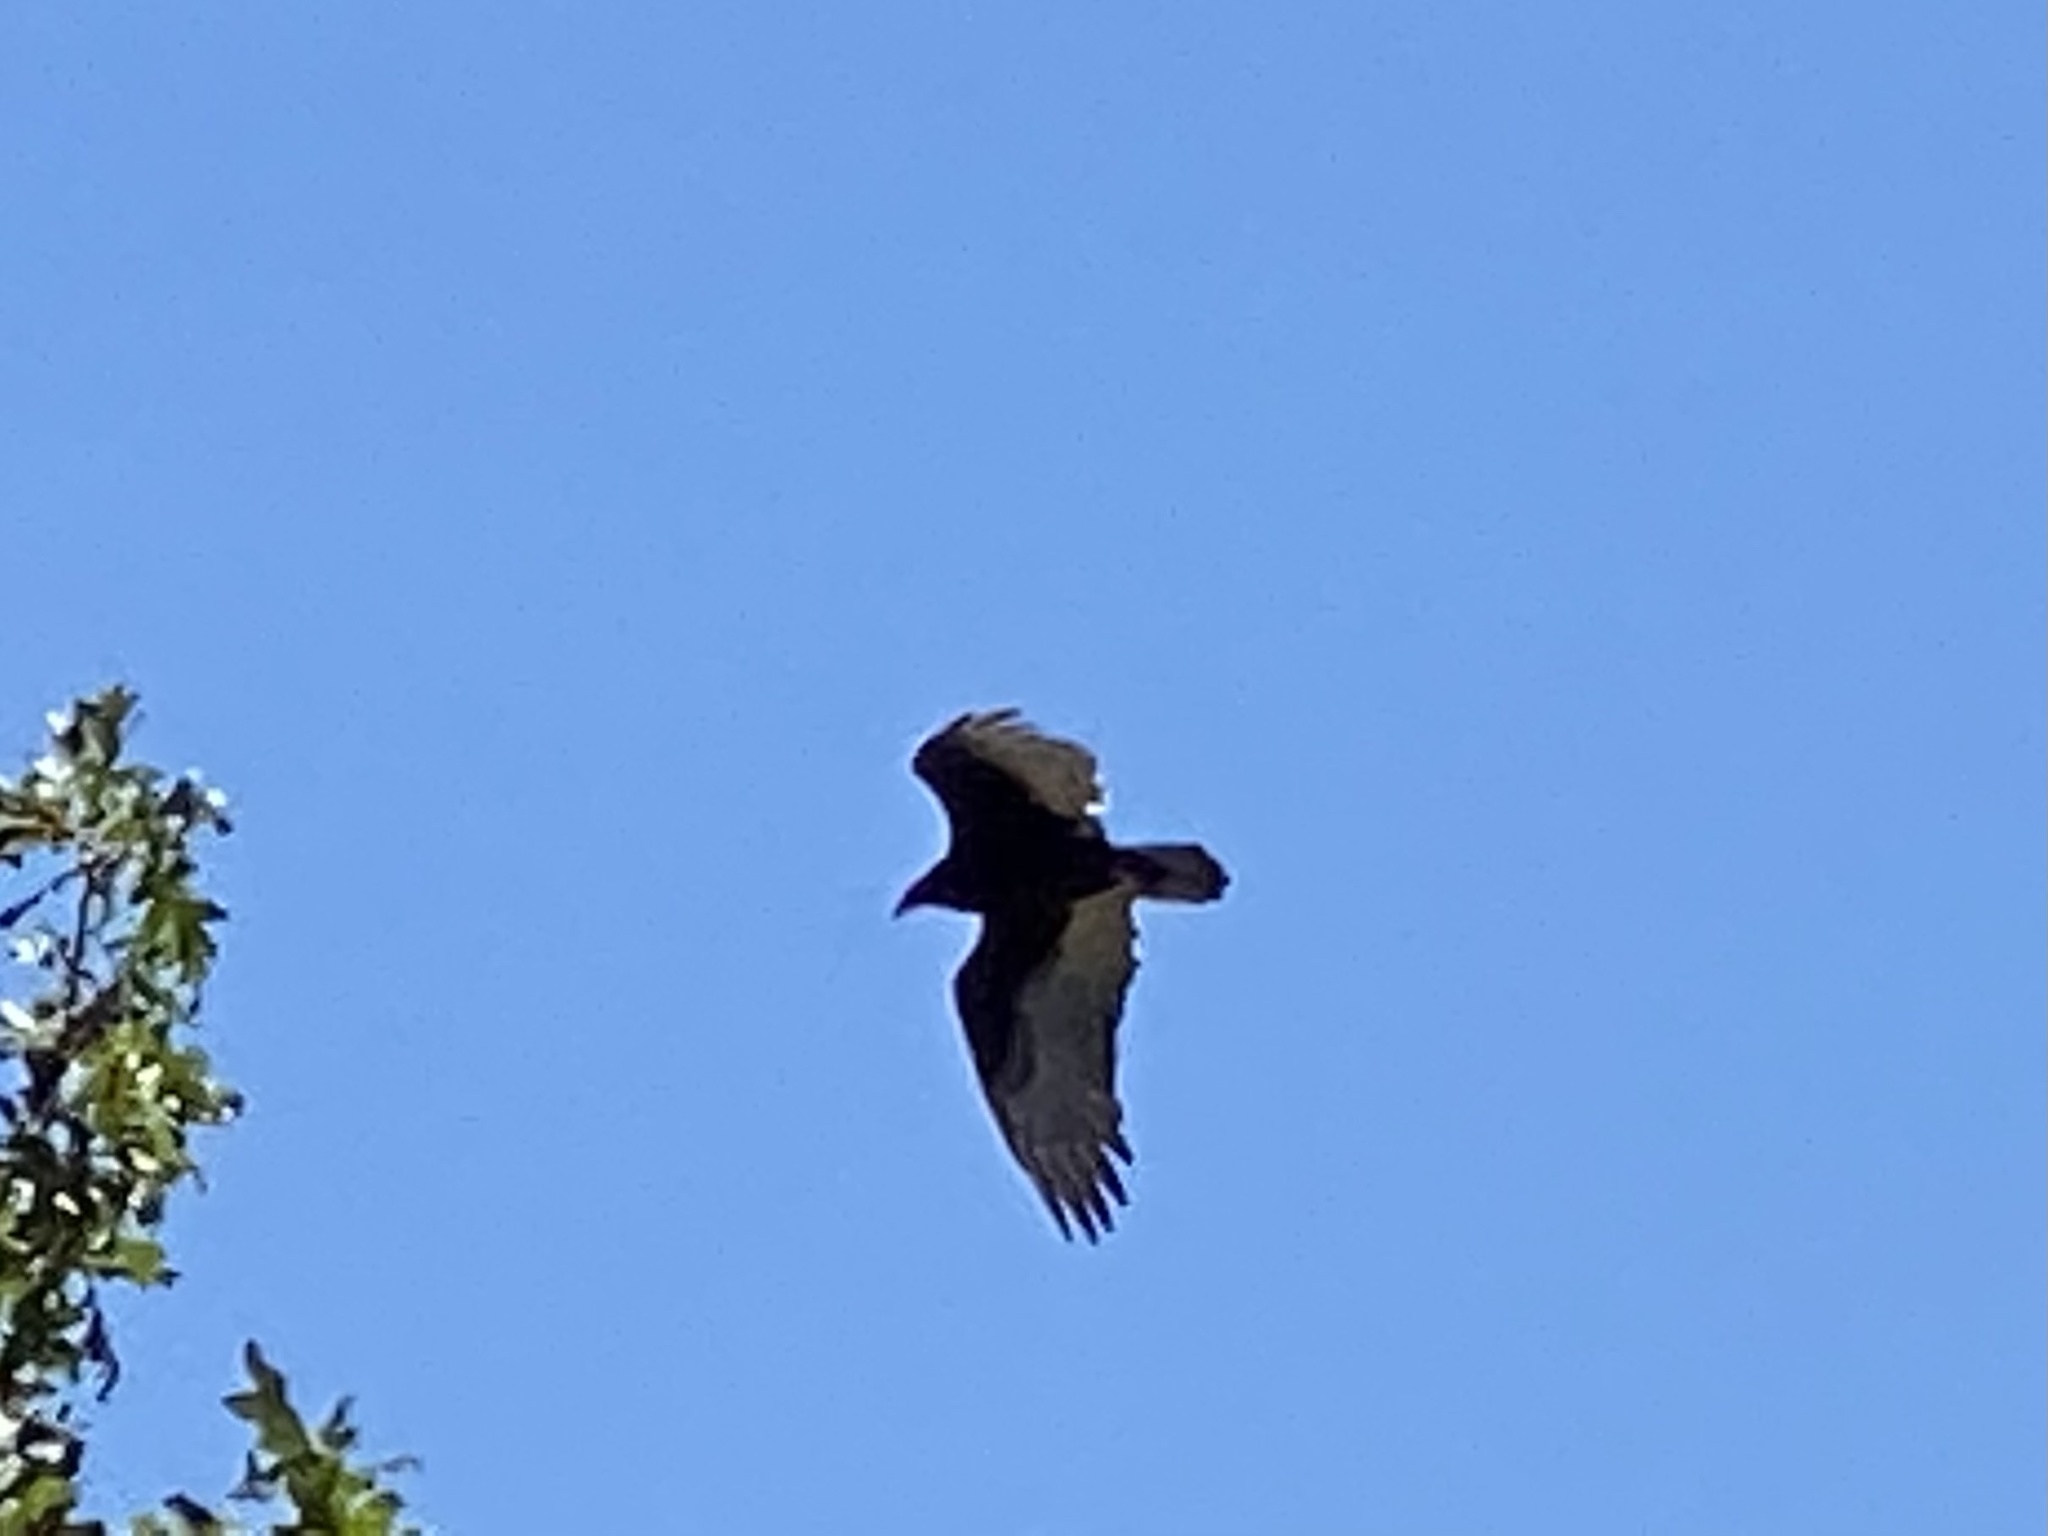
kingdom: Animalia
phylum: Chordata
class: Aves
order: Accipitriformes
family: Cathartidae
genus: Cathartes
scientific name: Cathartes aura
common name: Turkey vulture
